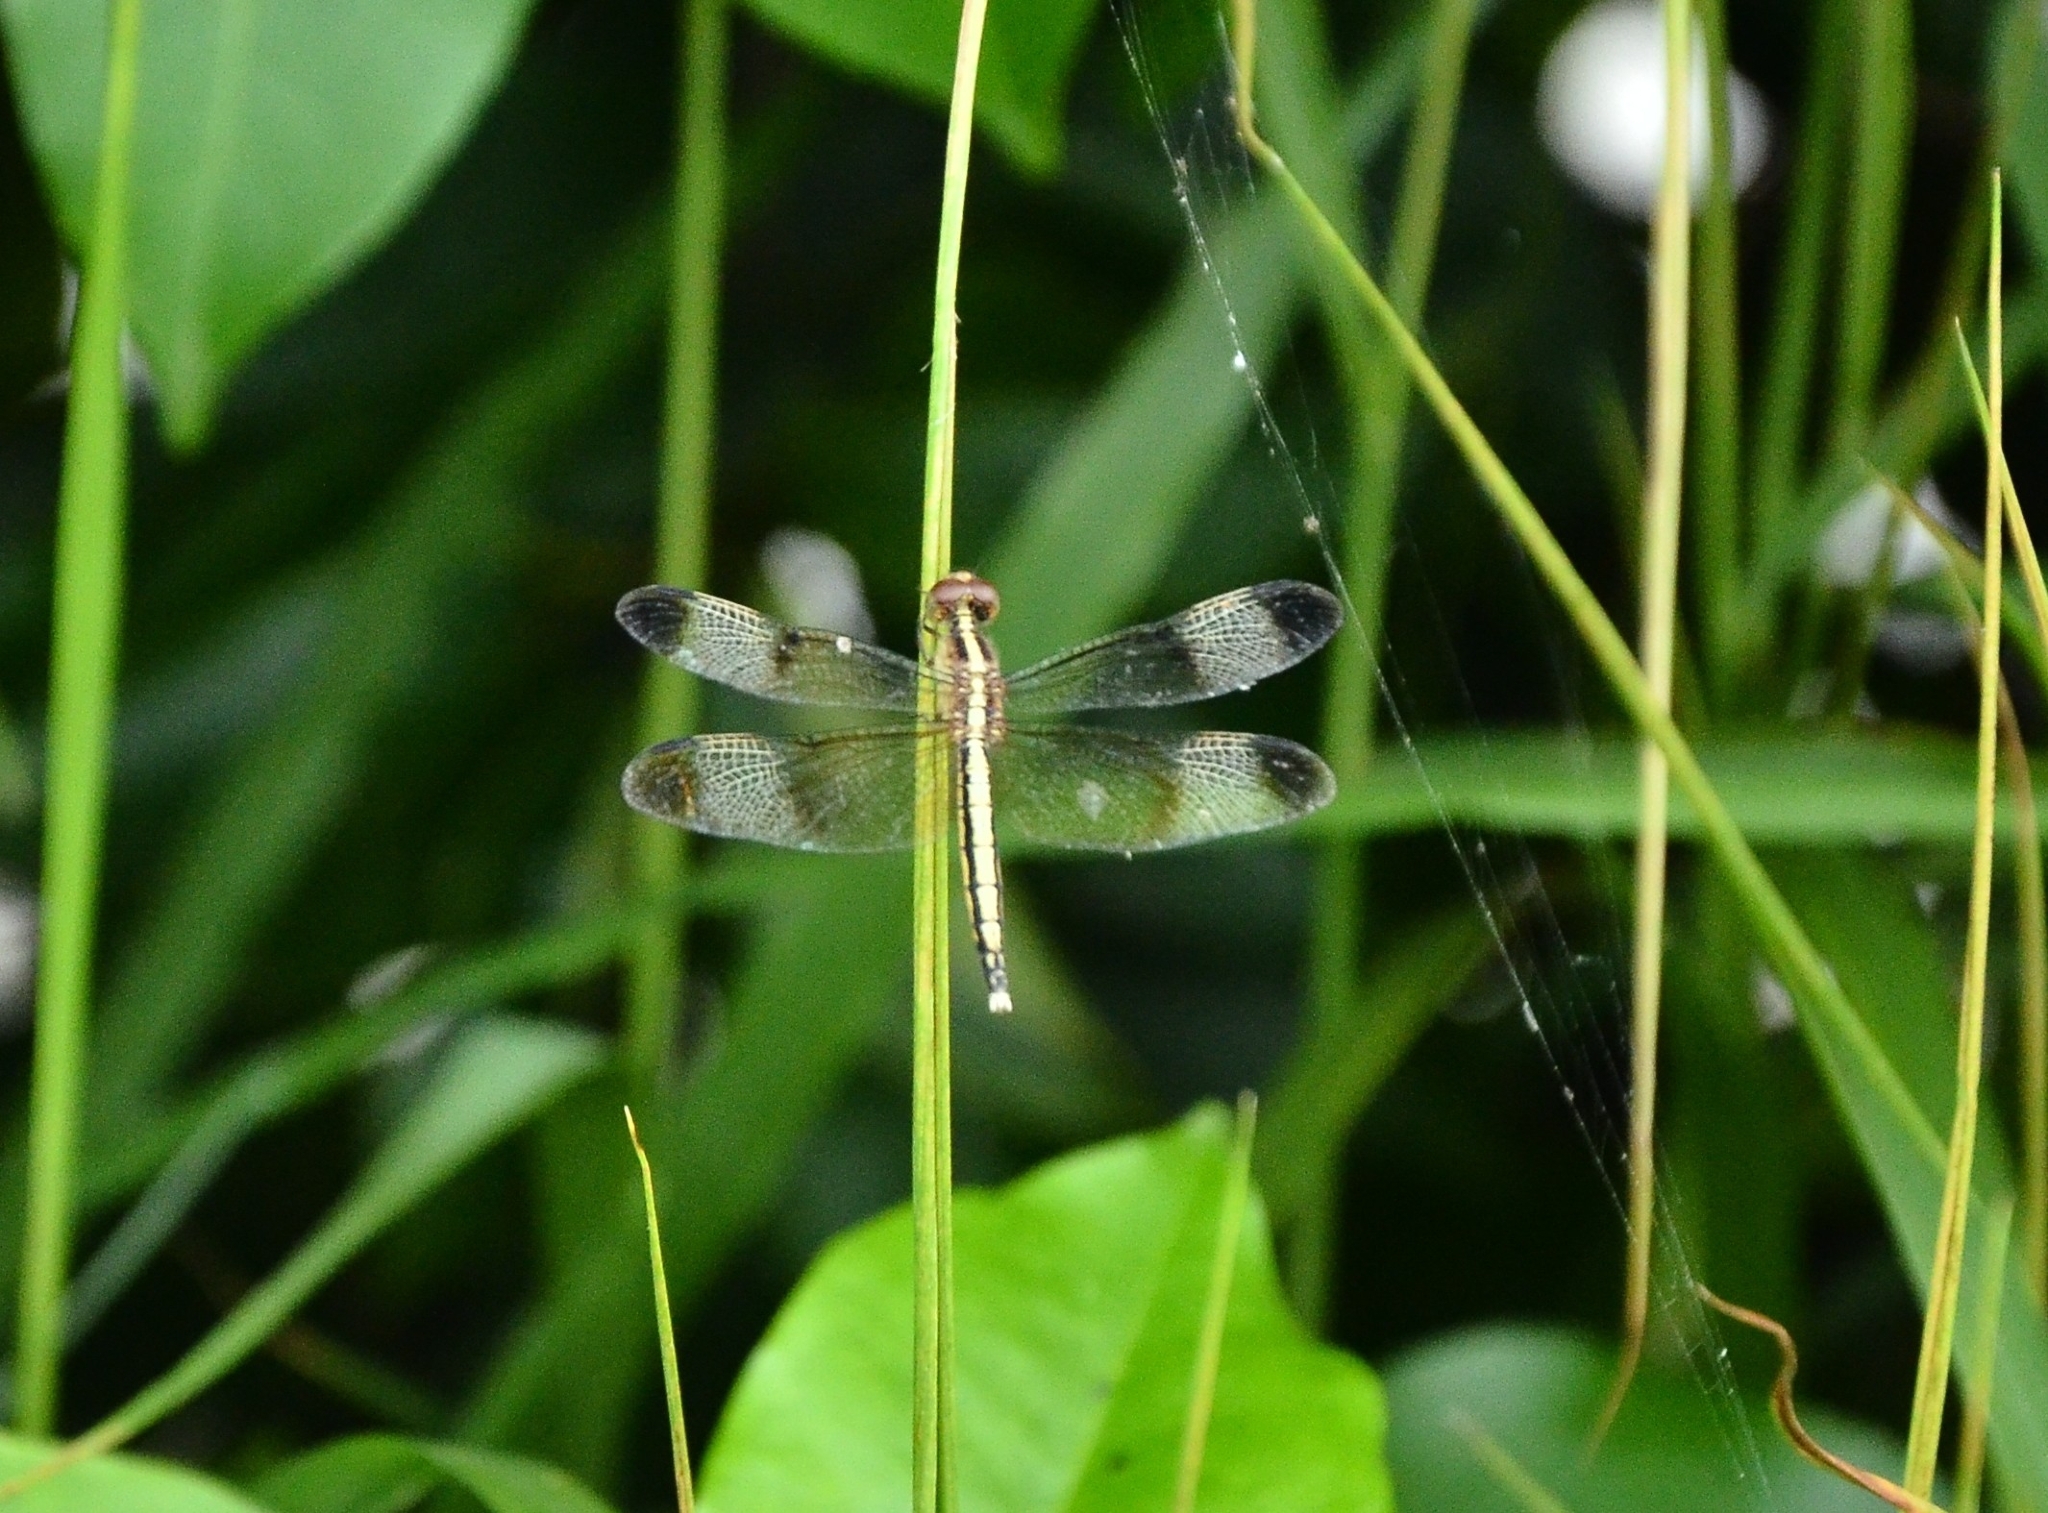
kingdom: Animalia
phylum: Arthropoda
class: Insecta
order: Odonata
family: Libellulidae
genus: Neurothemis
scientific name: Neurothemis tullia
